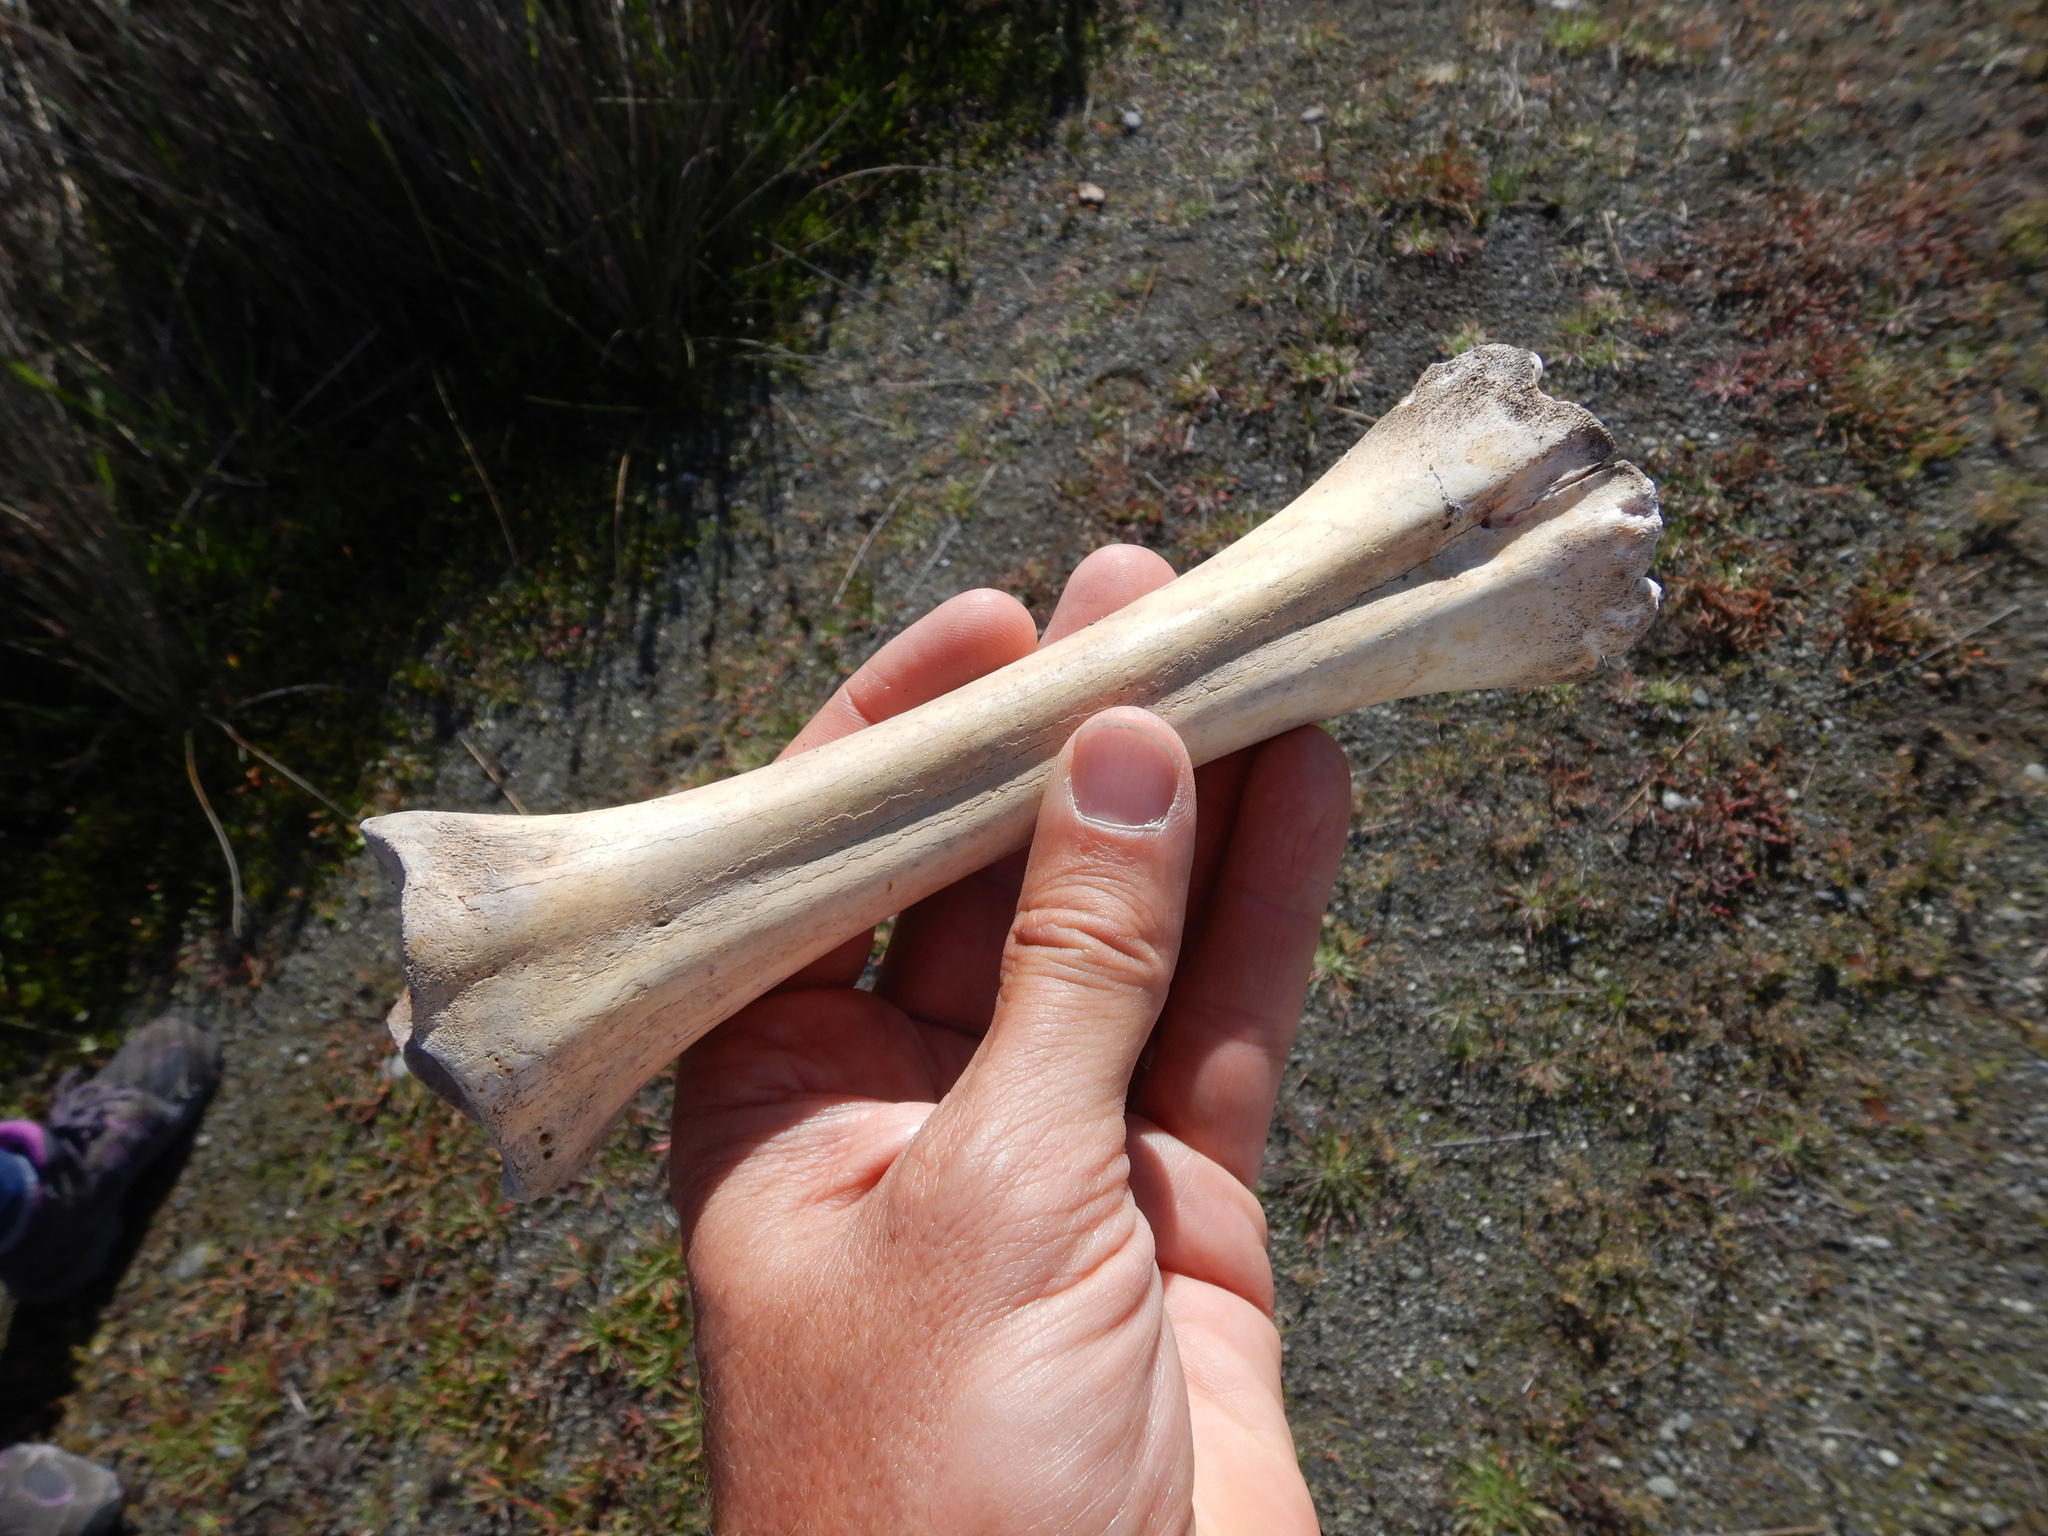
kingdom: Animalia
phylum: Chordata
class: Mammalia
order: Artiodactyla
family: Bovidae
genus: Ovis
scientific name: Ovis aries
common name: Domestic sheep
